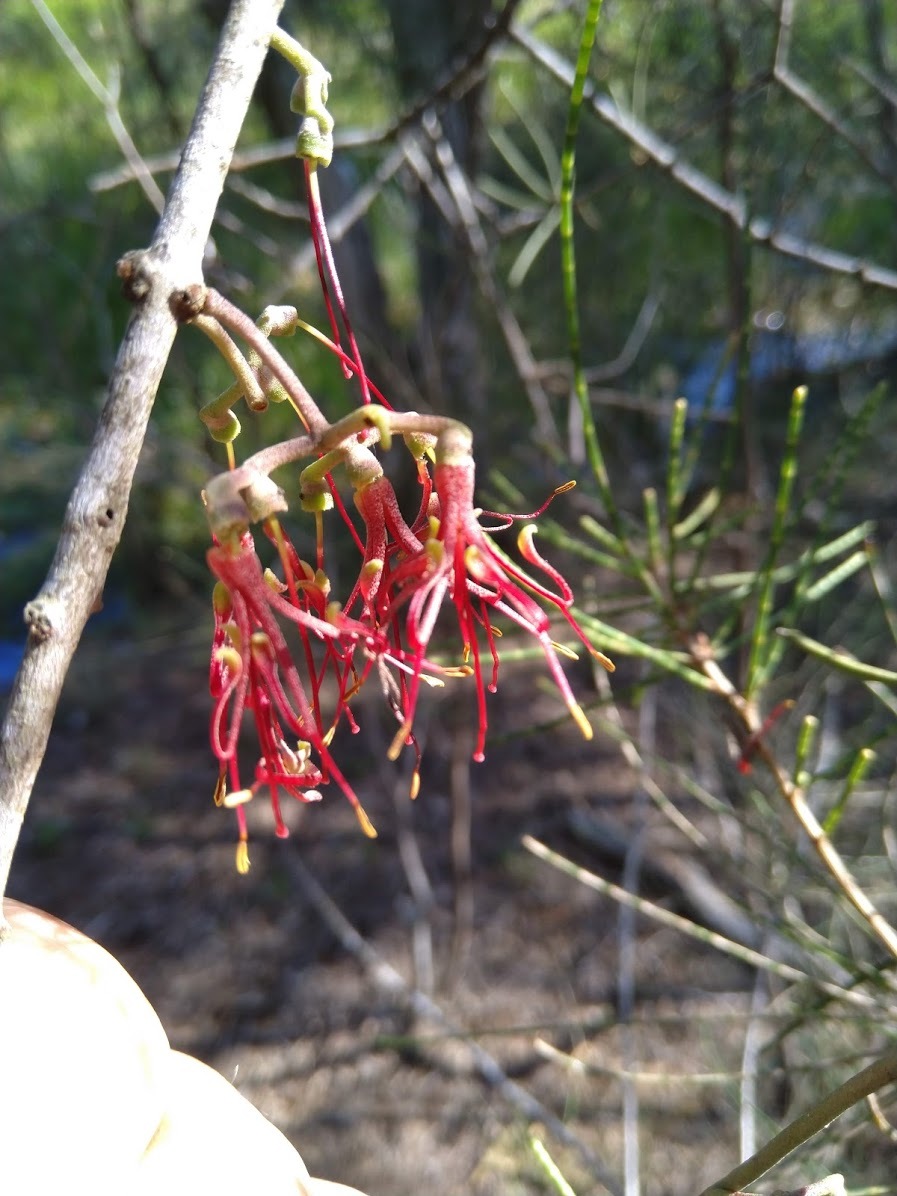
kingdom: Plantae
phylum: Tracheophyta
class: Magnoliopsida
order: Santalales
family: Loranthaceae
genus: Amyema
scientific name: Amyema cambagei
